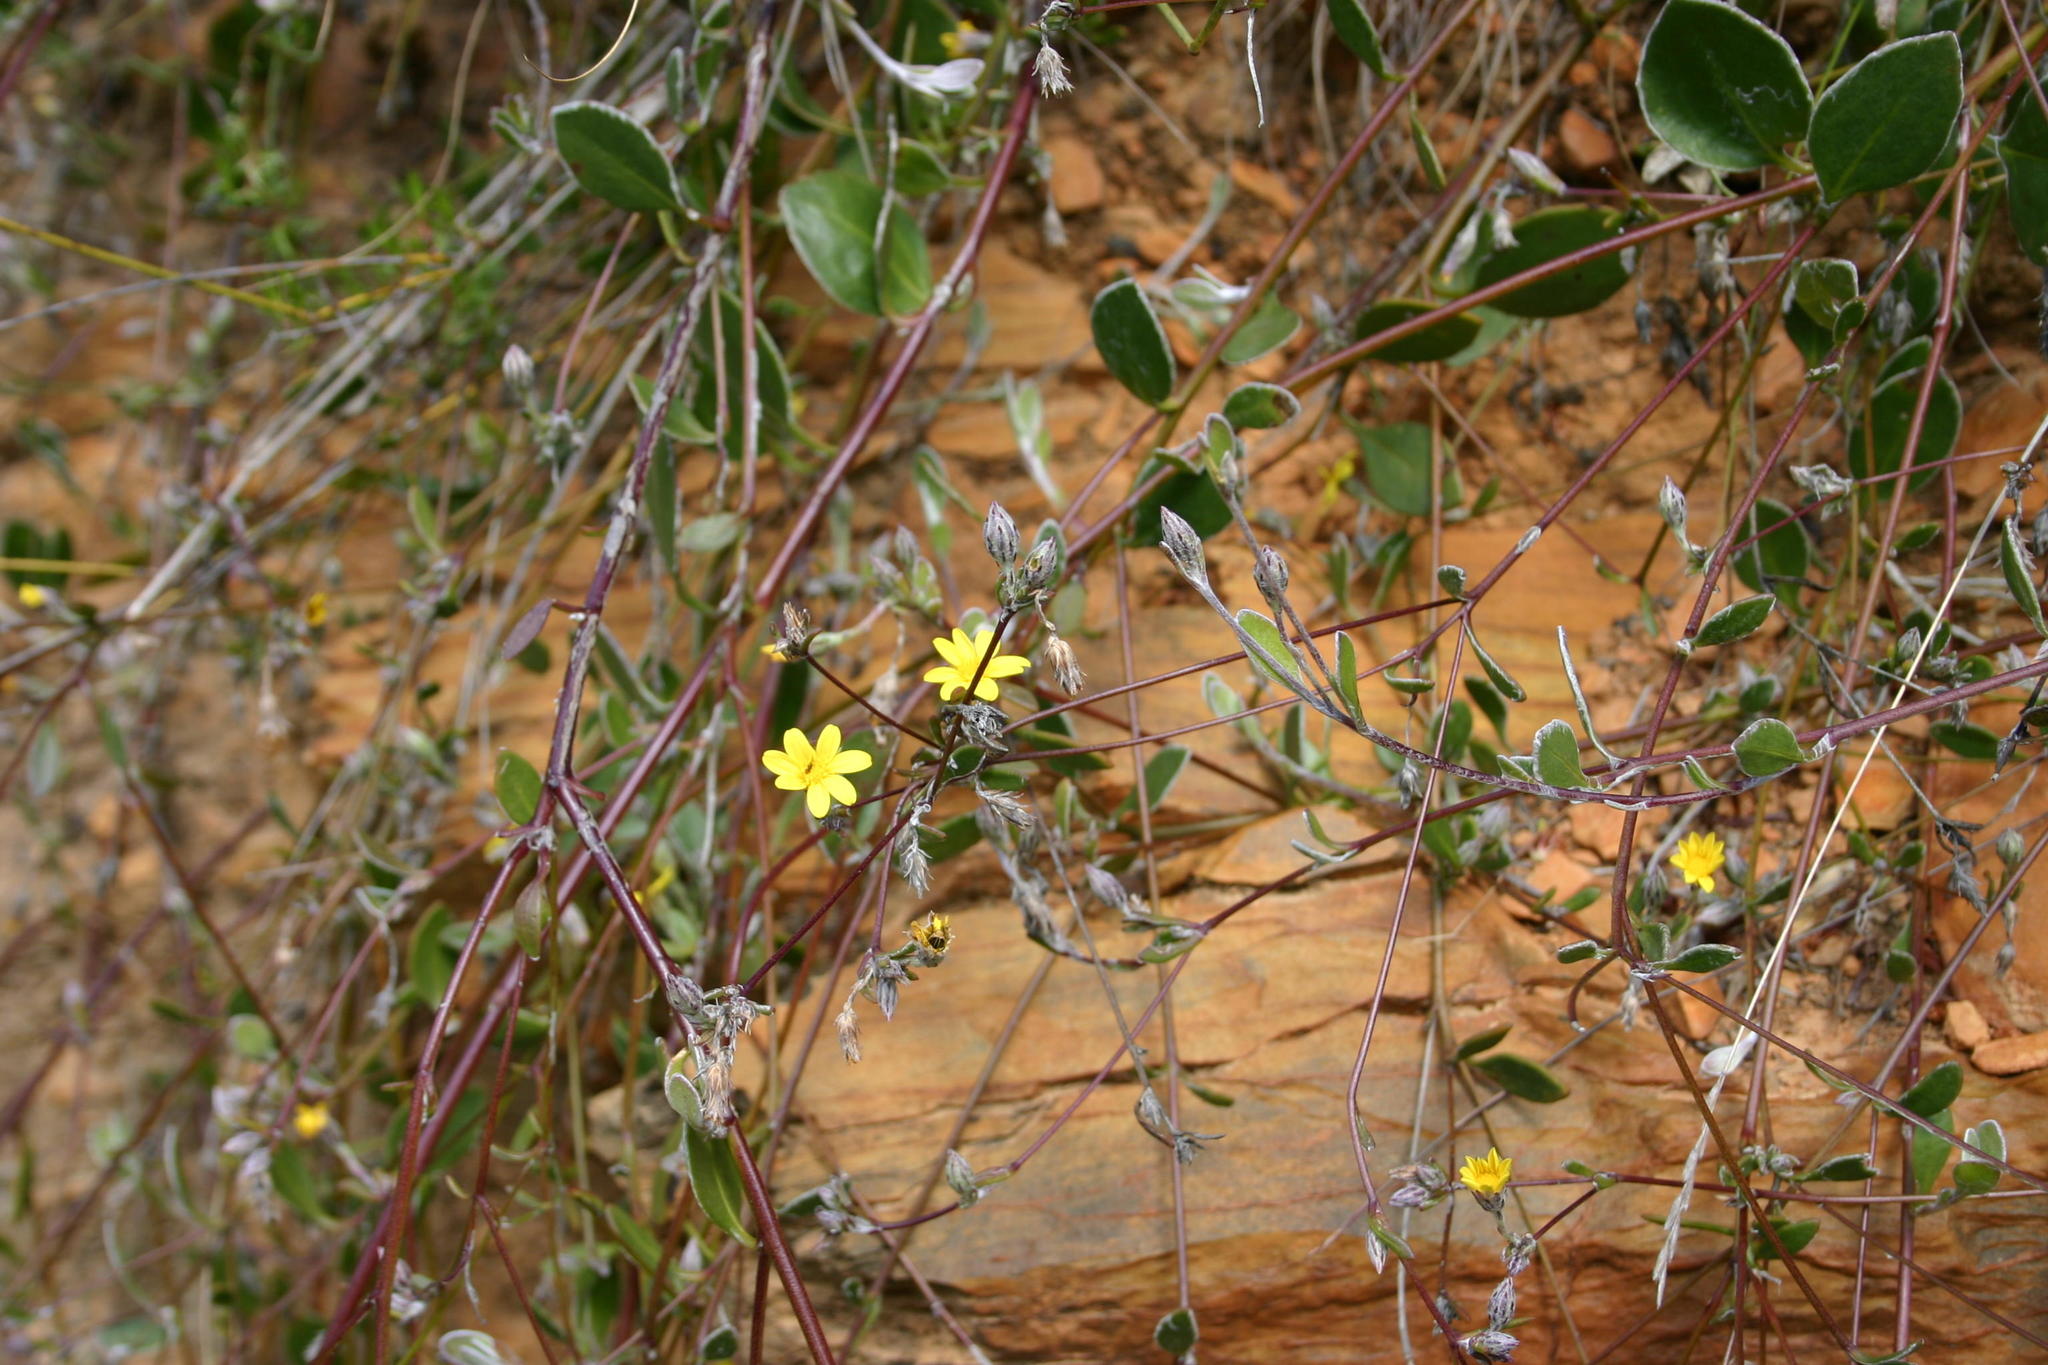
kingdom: Plantae
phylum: Tracheophyta
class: Magnoliopsida
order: Asterales
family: Asteraceae
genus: Osteospermum
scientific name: Osteospermum pyrifolium
